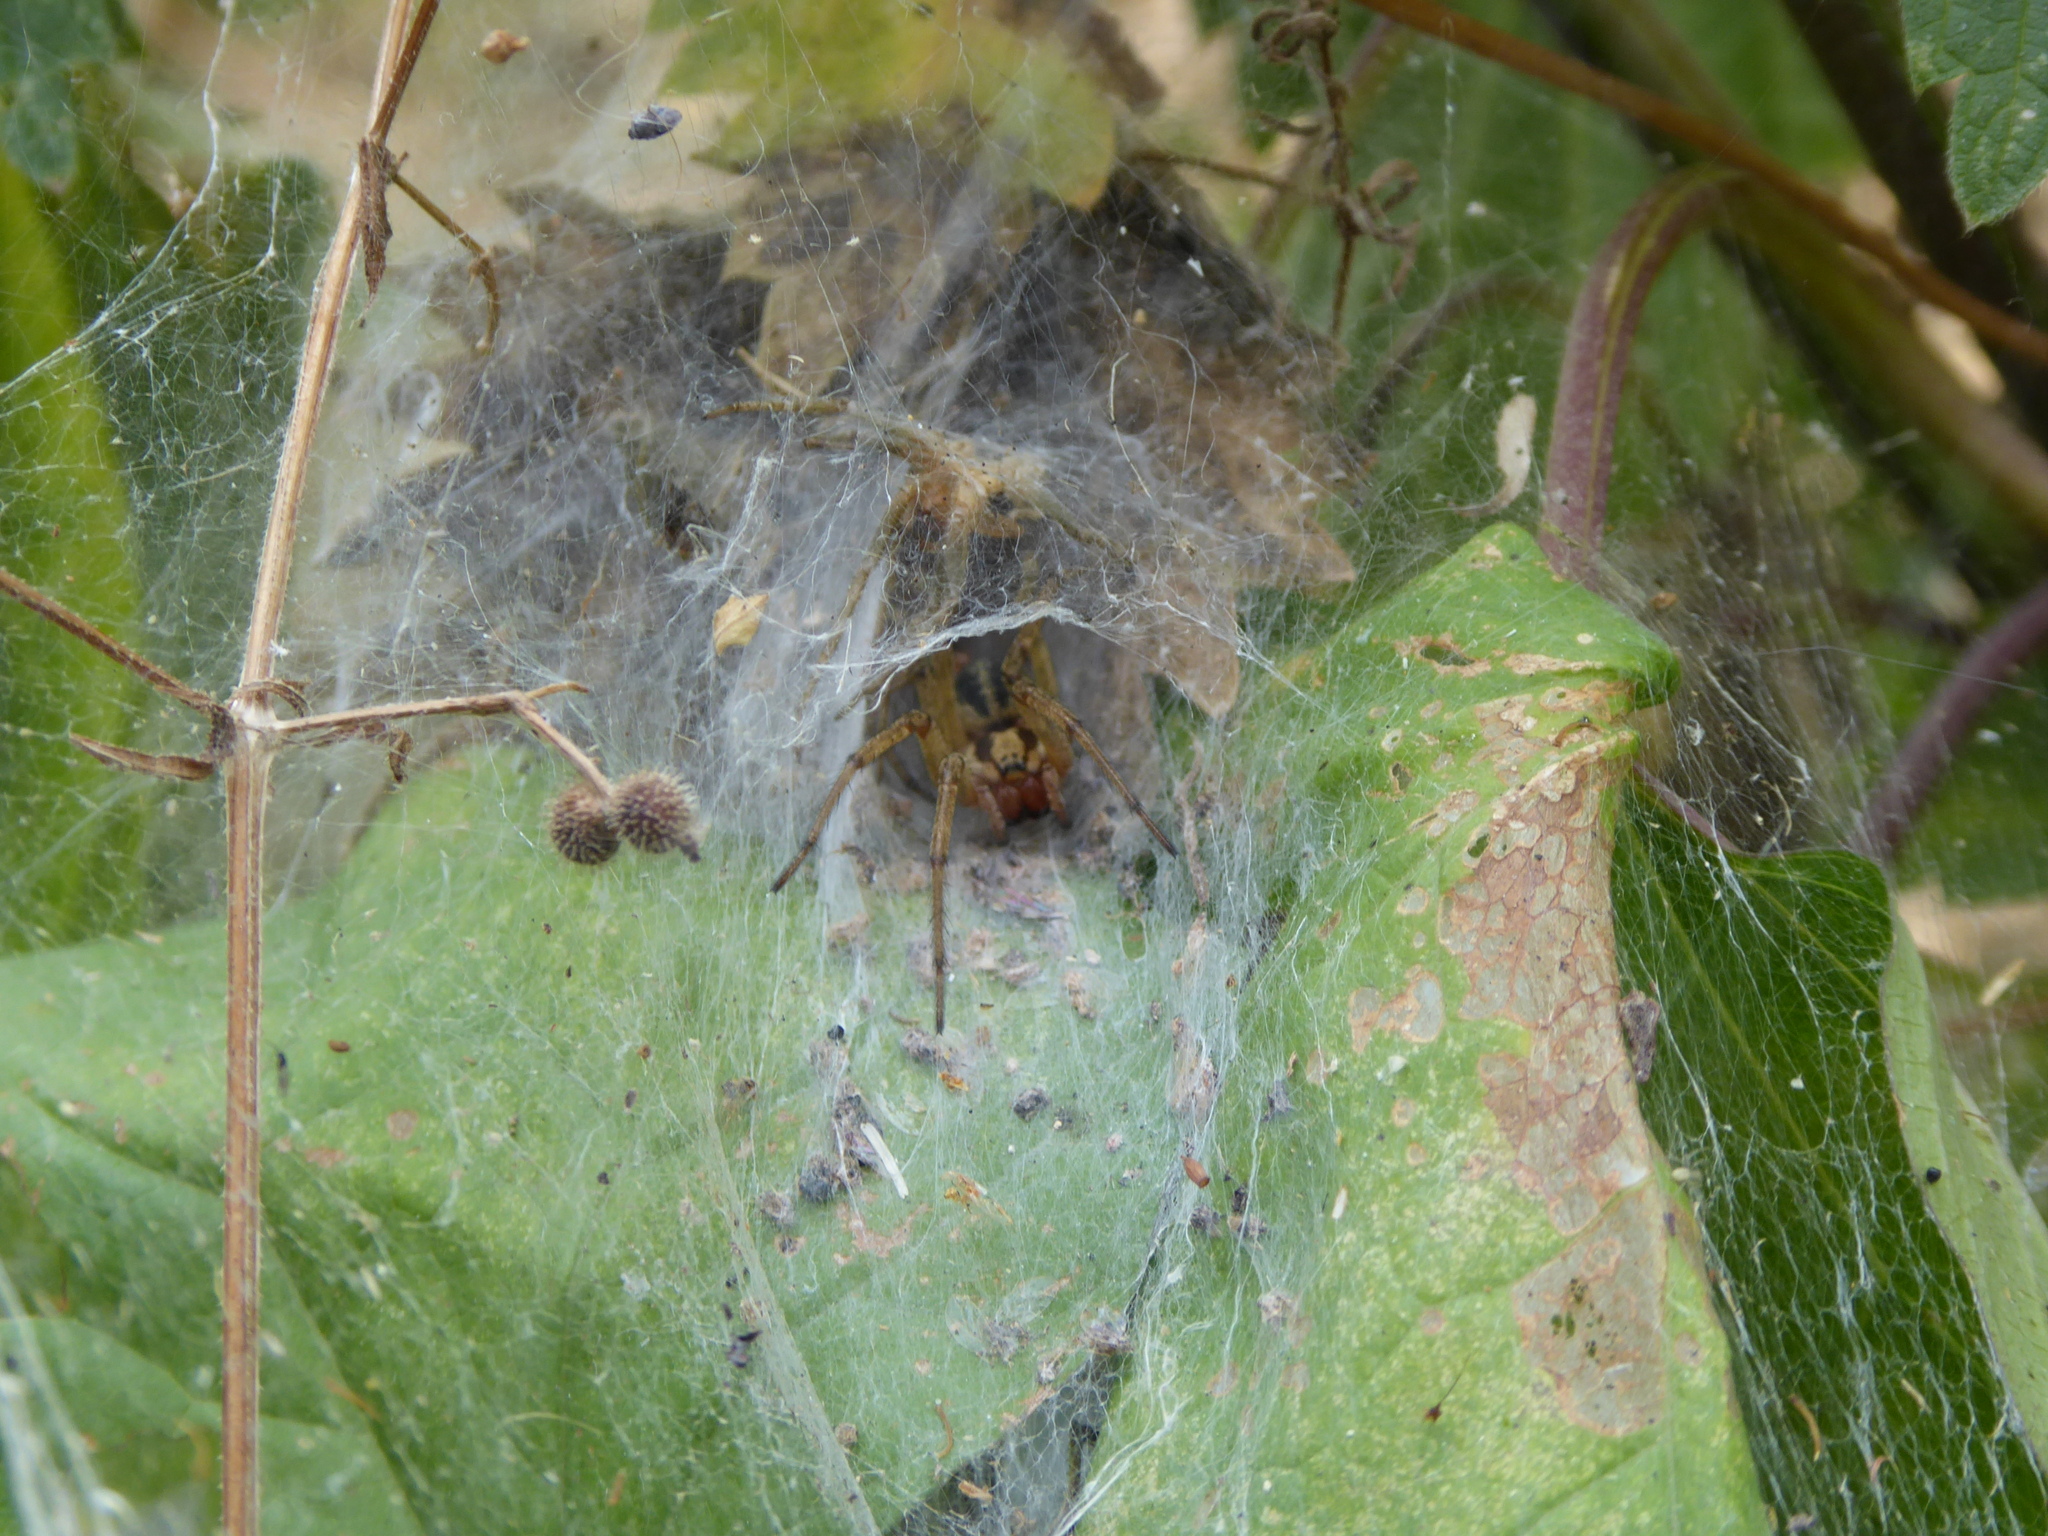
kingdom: Animalia
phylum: Arthropoda
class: Arachnida
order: Araneae
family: Agelenidae
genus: Agelena
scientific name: Agelena labyrinthica
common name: Labyrinth spider
